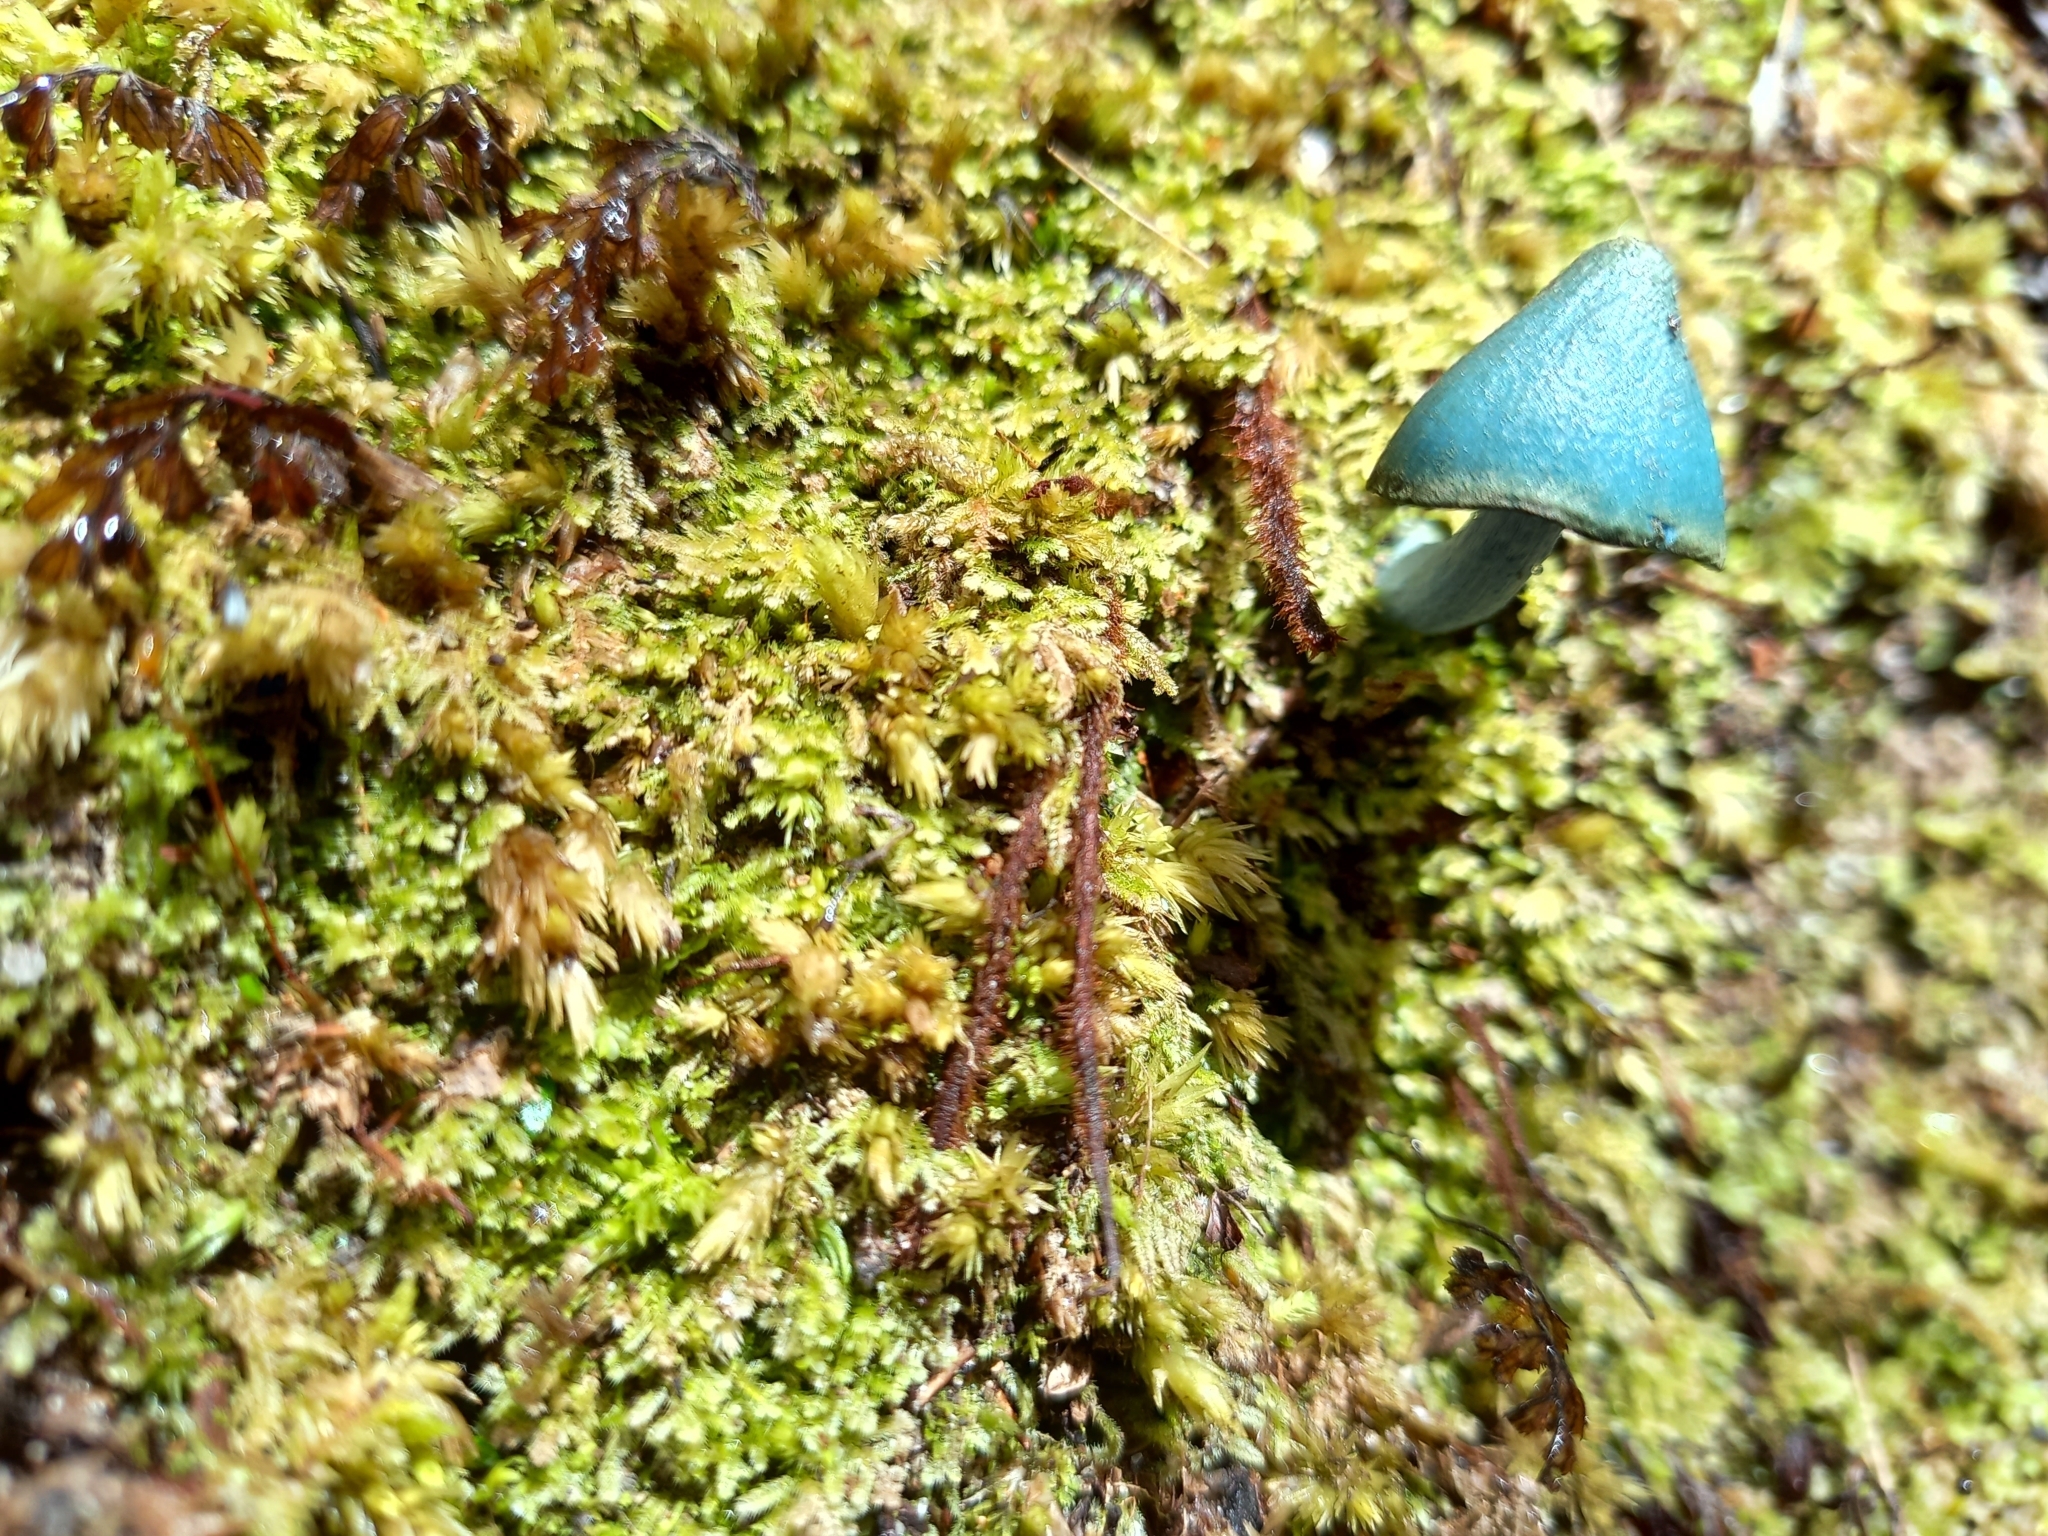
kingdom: Fungi
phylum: Basidiomycota
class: Agaricomycetes
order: Agaricales
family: Entolomataceae
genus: Entoloma
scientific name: Entoloma hochstetteri
